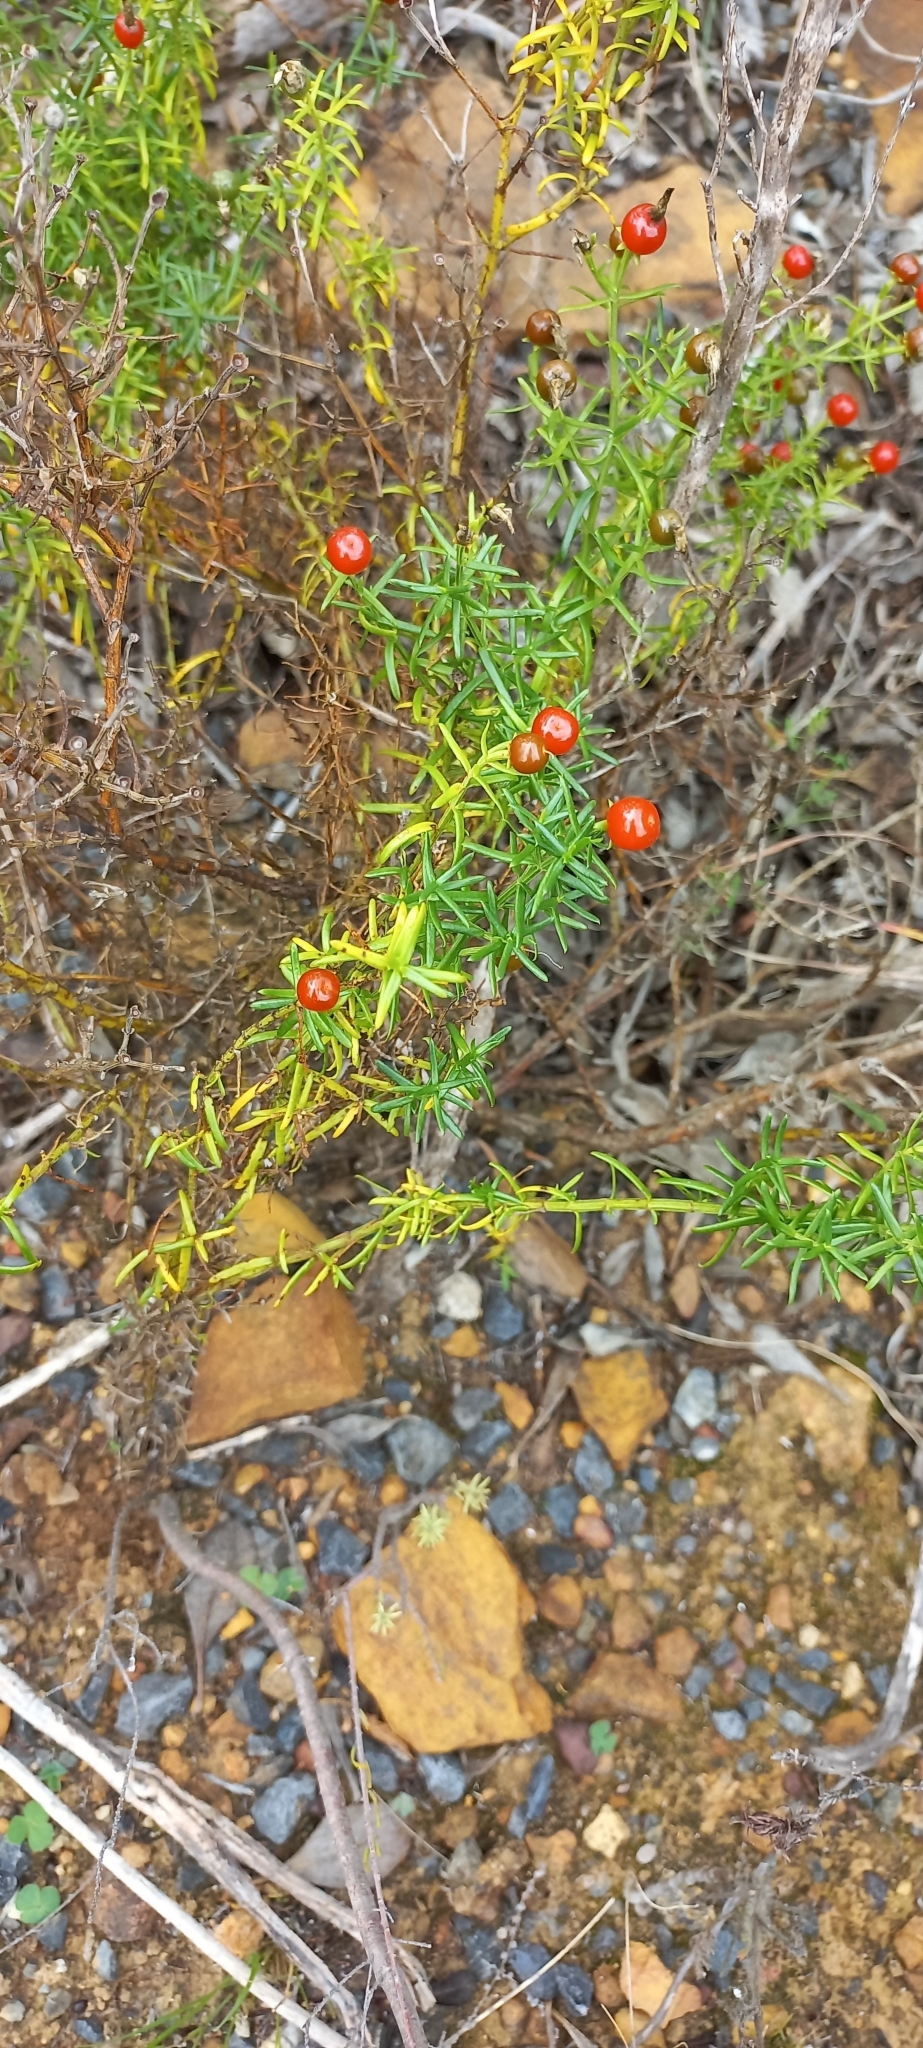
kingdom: Plantae
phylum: Tracheophyta
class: Magnoliopsida
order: Gentianales
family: Gentianaceae
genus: Chironia
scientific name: Chironia baccifera
